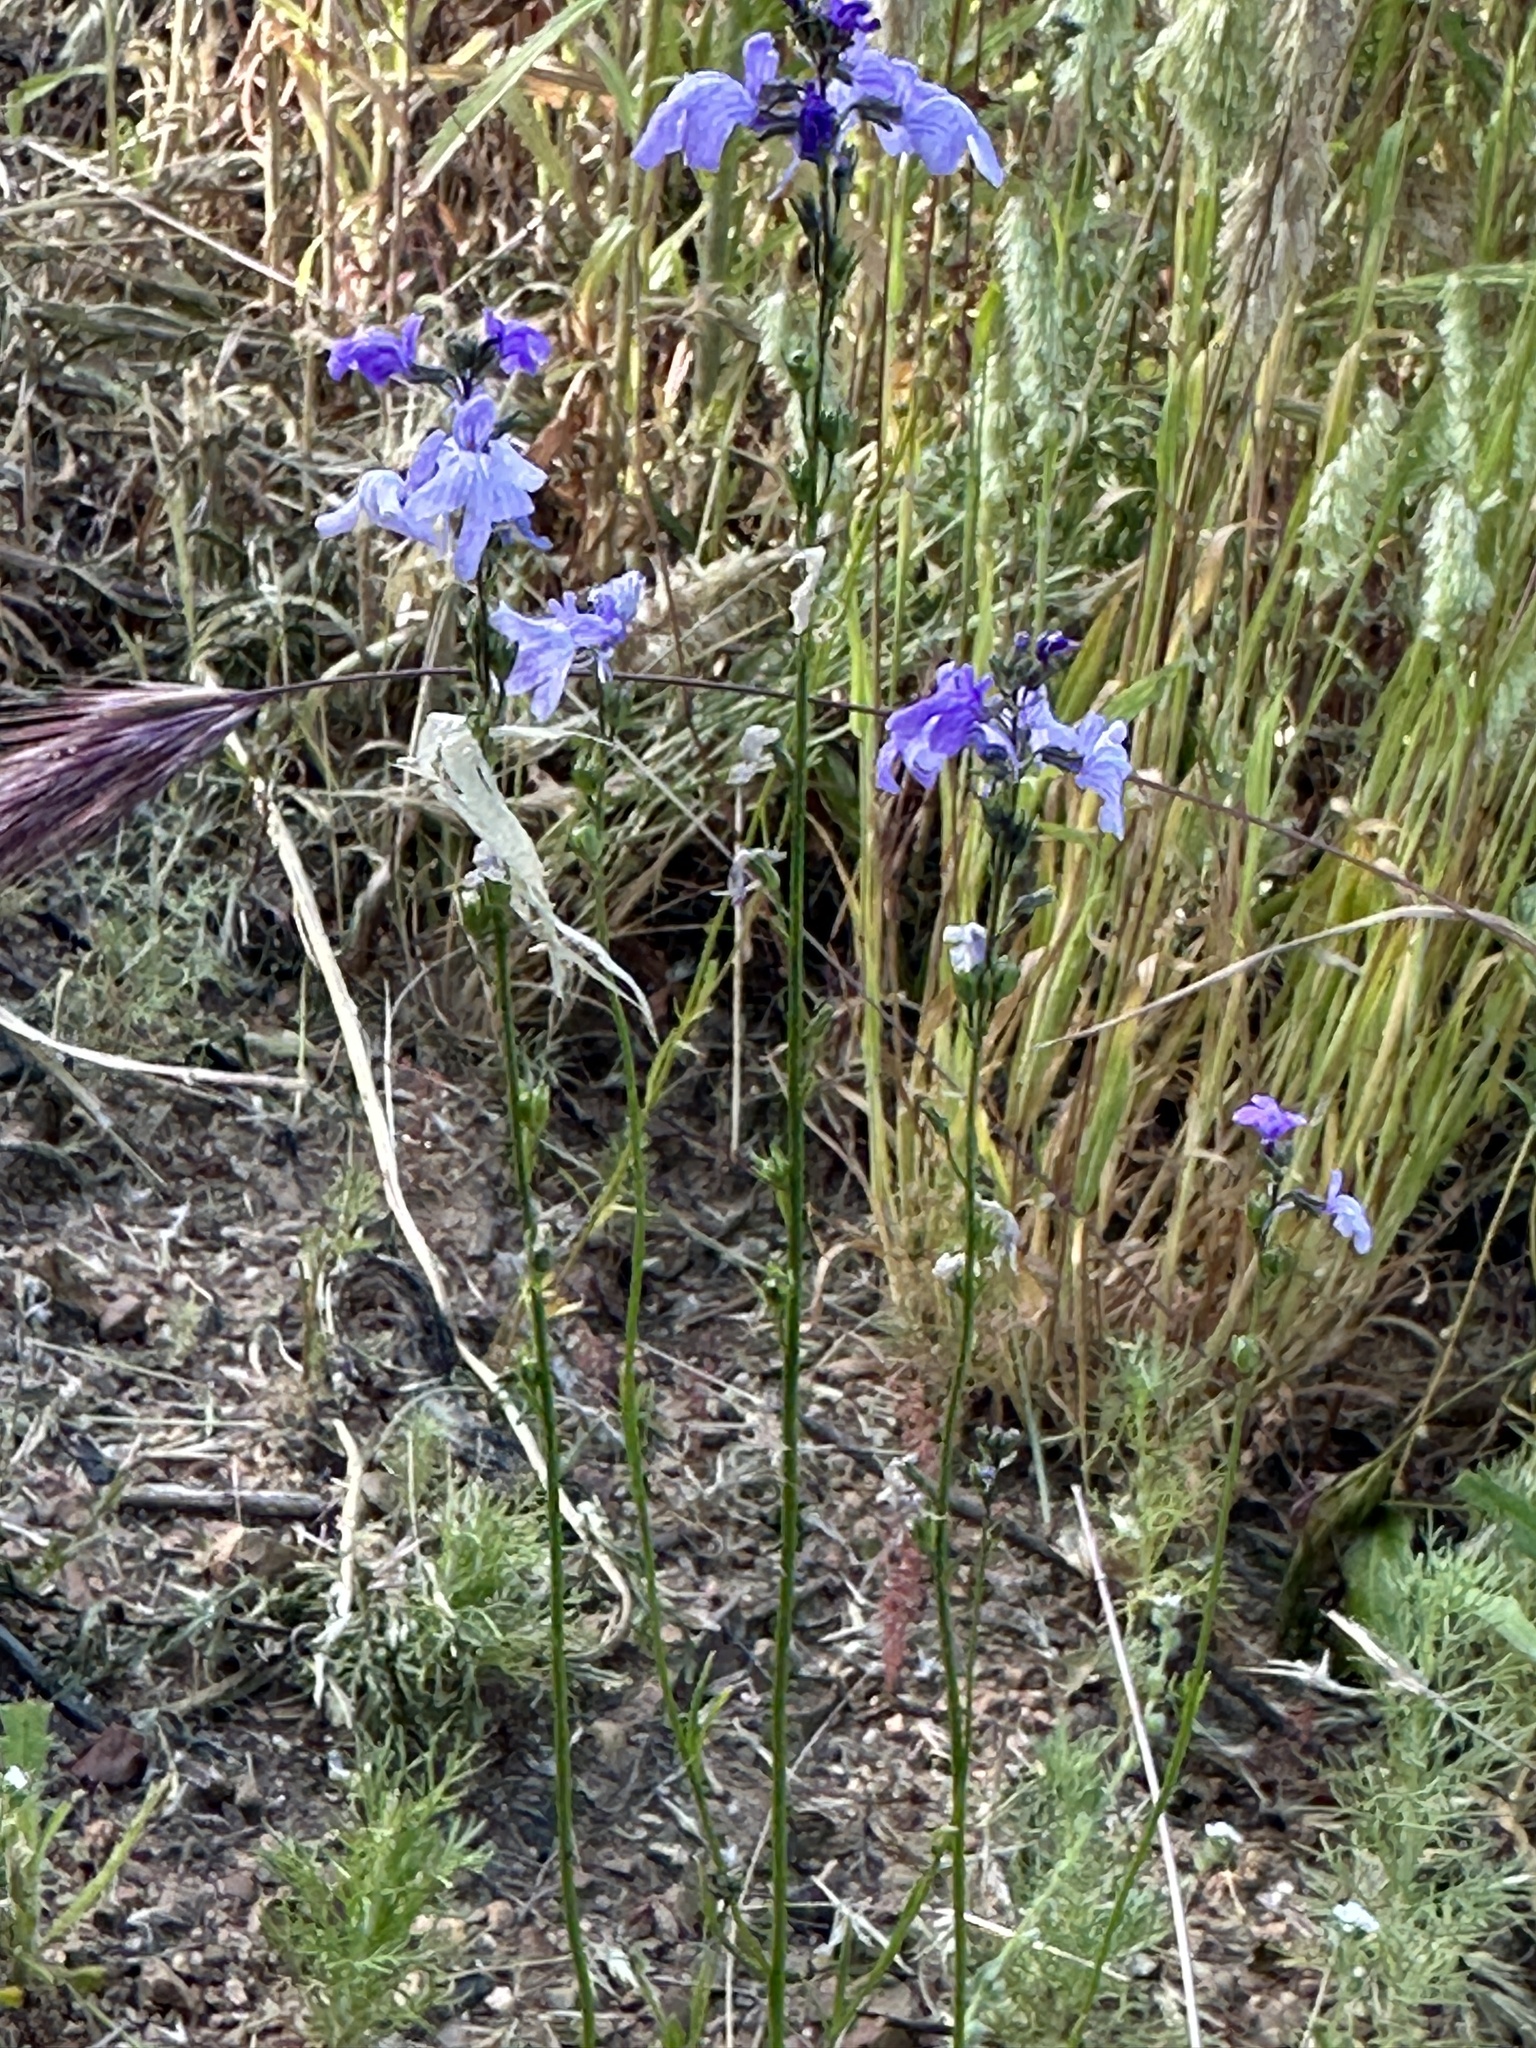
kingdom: Plantae
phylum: Tracheophyta
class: Magnoliopsida
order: Lamiales
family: Plantaginaceae
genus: Nuttallanthus
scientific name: Nuttallanthus texanus
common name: Texas toadflax
